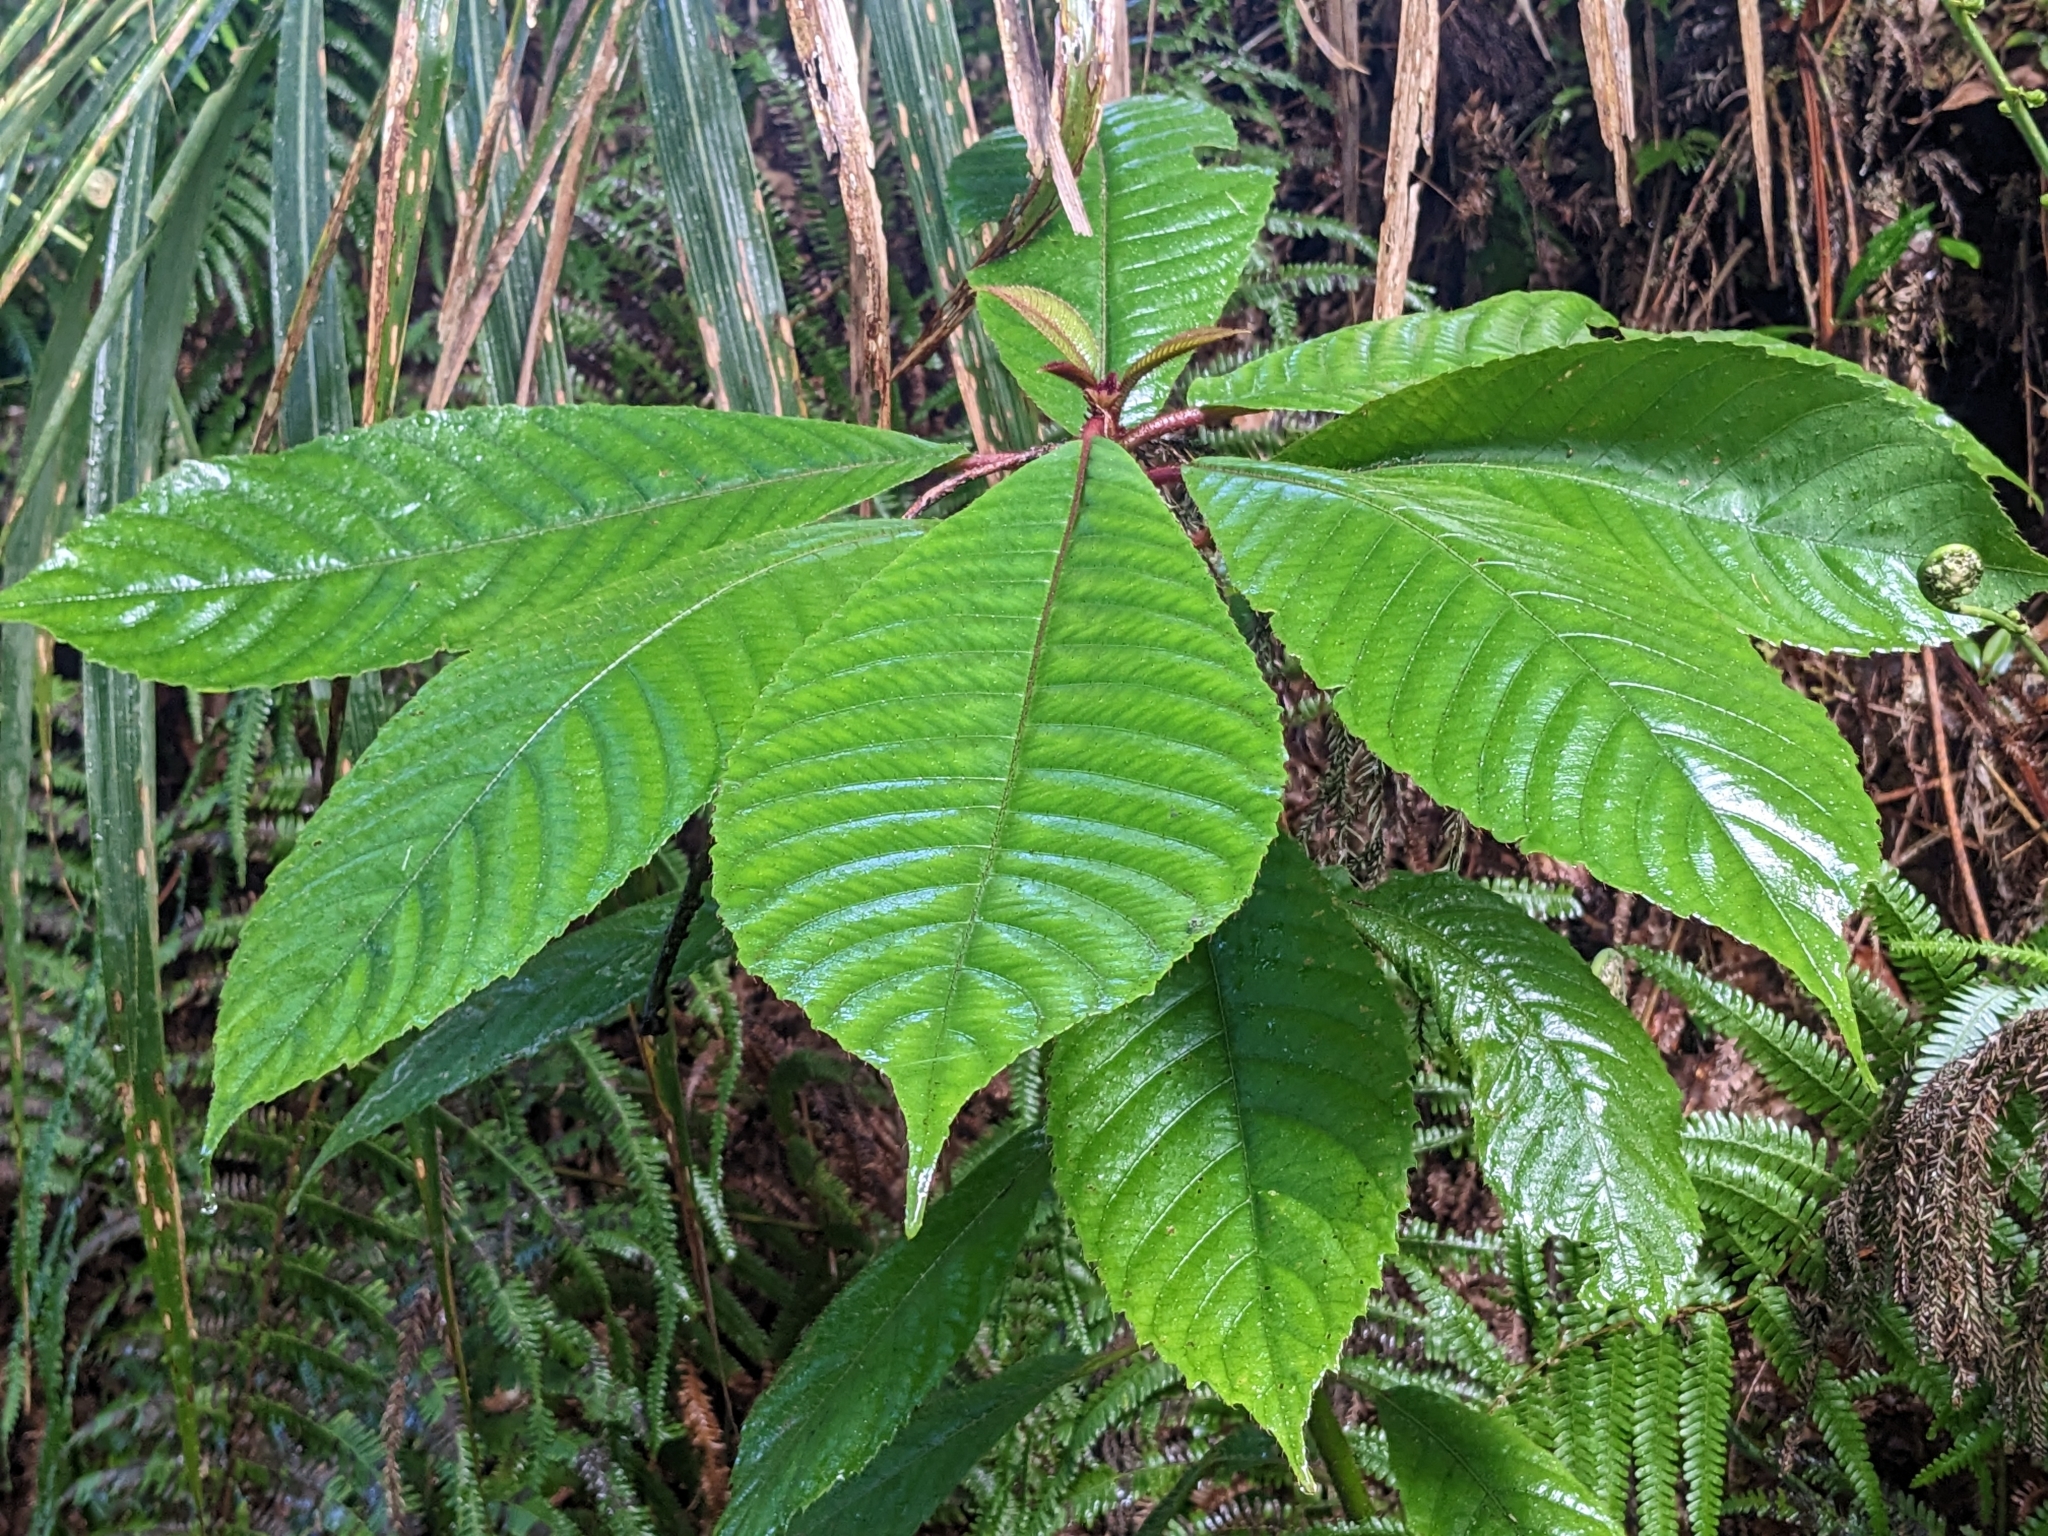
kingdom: Plantae
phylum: Tracheophyta
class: Magnoliopsida
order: Ericales
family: Actinidiaceae
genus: Saurauia
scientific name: Saurauia tristyla
